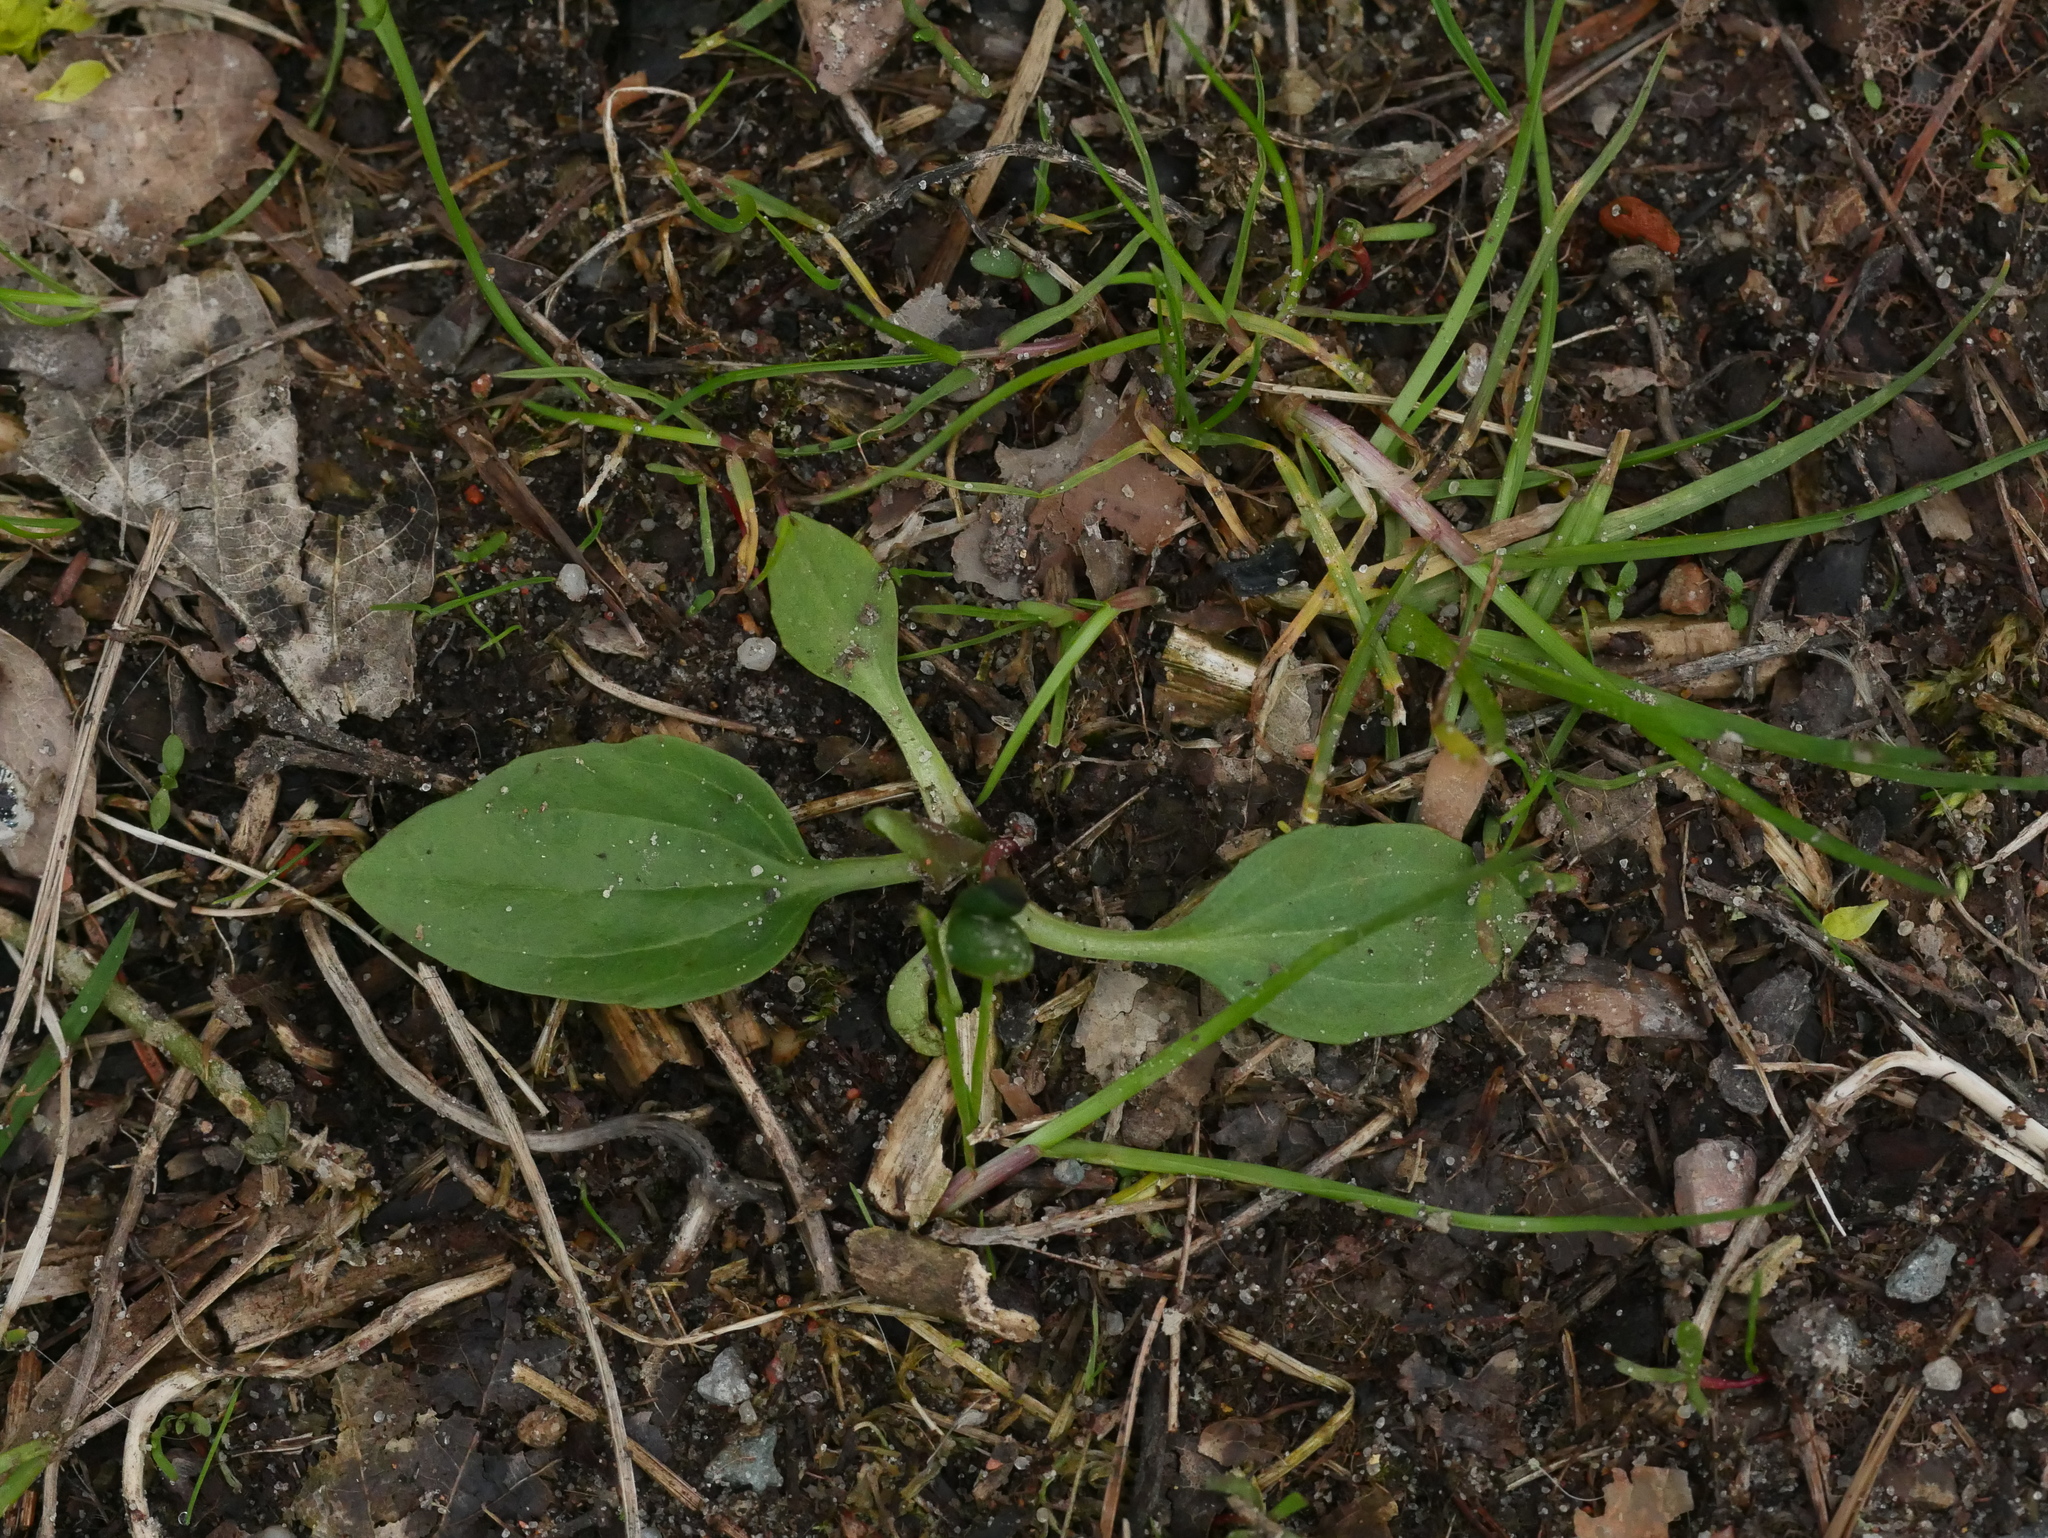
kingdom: Plantae
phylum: Tracheophyta
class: Magnoliopsida
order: Lamiales
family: Plantaginaceae
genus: Plantago
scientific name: Plantago major
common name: Common plantain
